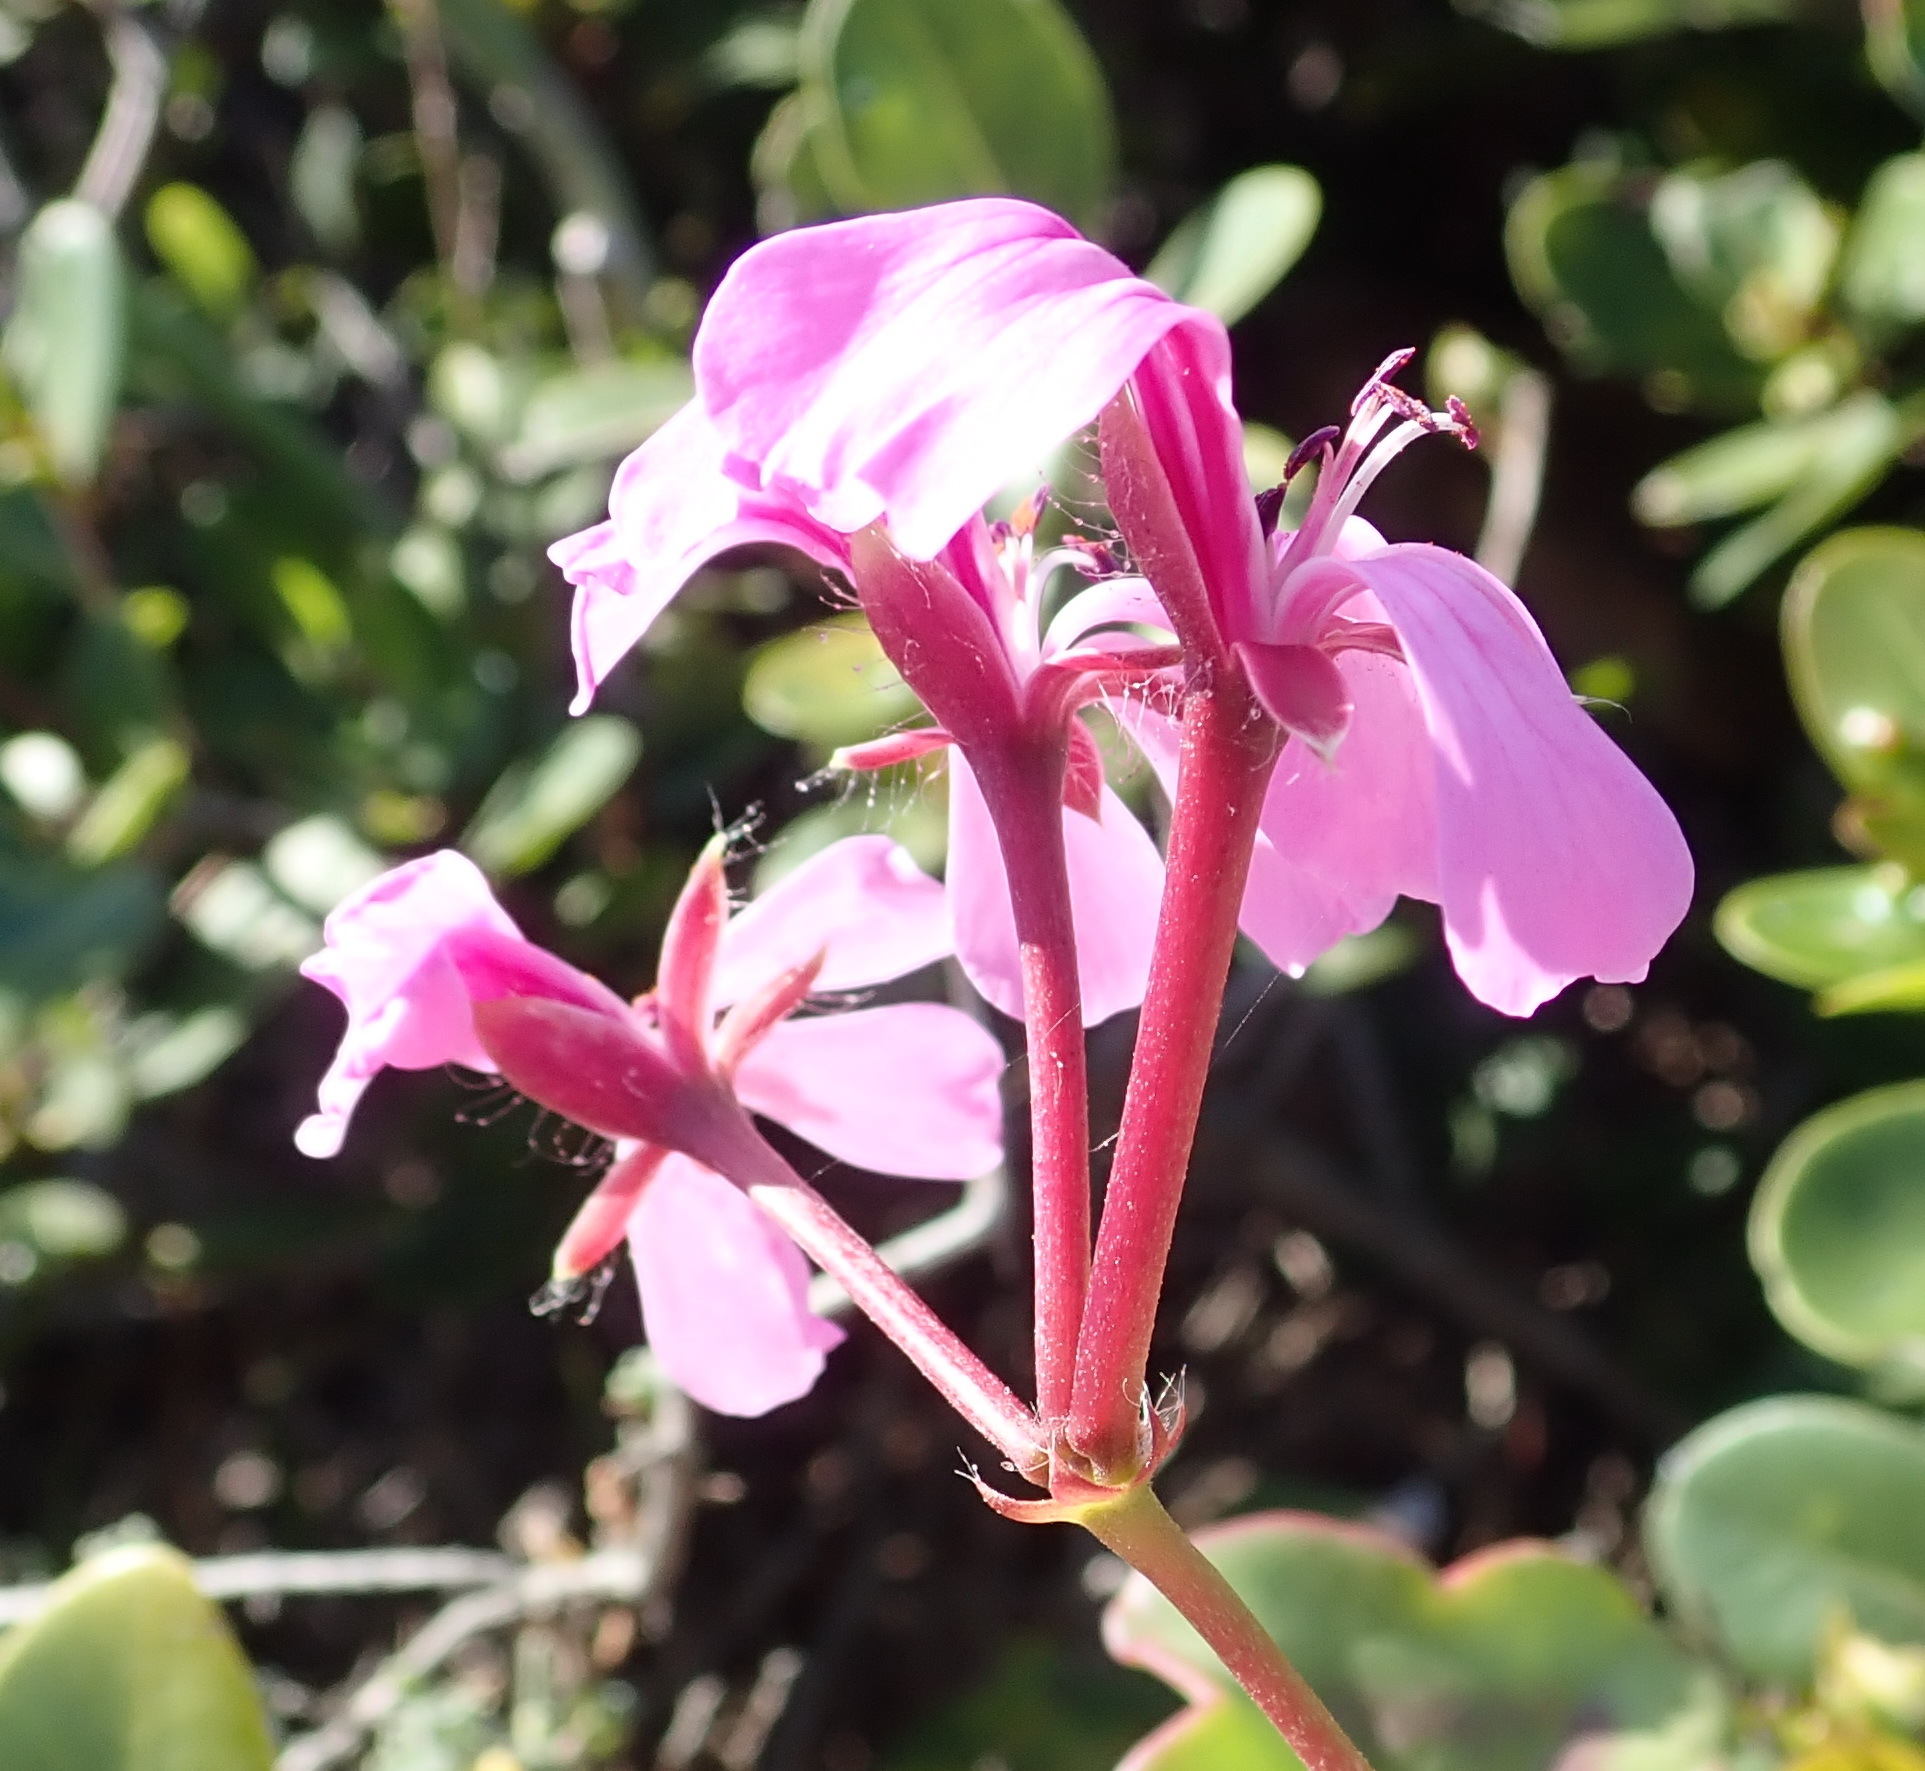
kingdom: Plantae
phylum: Tracheophyta
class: Magnoliopsida
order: Geraniales
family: Geraniaceae
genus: Pelargonium
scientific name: Pelargonium peltatum
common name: Ivyleaf geranium
